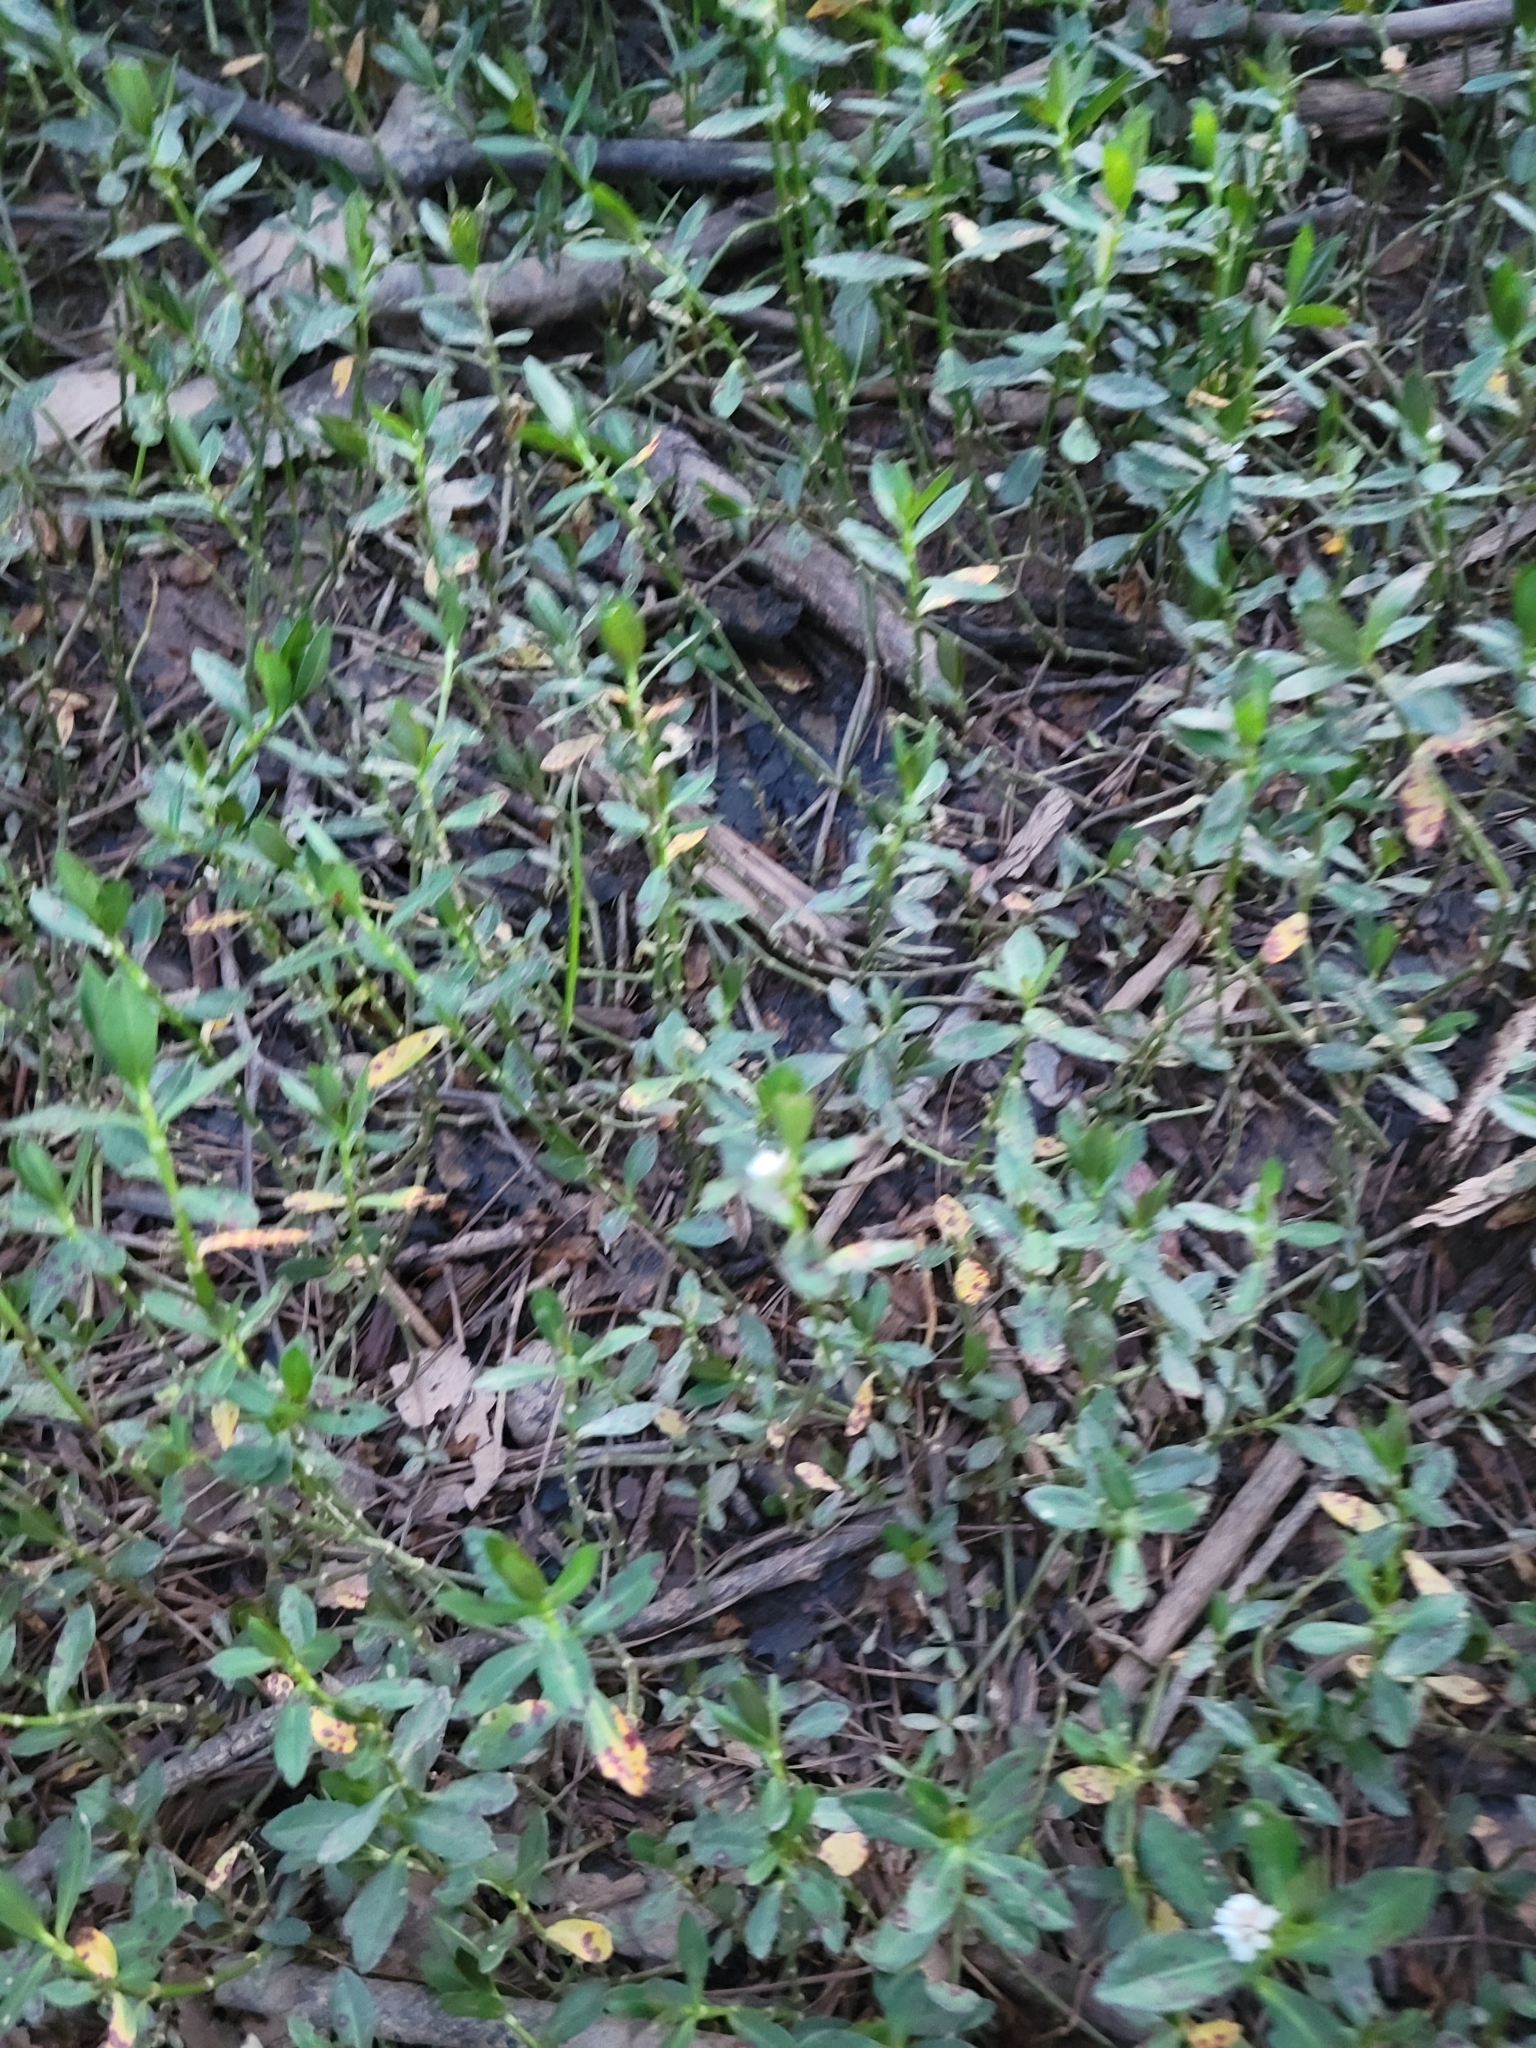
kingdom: Plantae
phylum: Tracheophyta
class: Magnoliopsida
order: Caryophyllales
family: Amaranthaceae
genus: Alternanthera
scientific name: Alternanthera philoxeroides
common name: Alligatorweed
